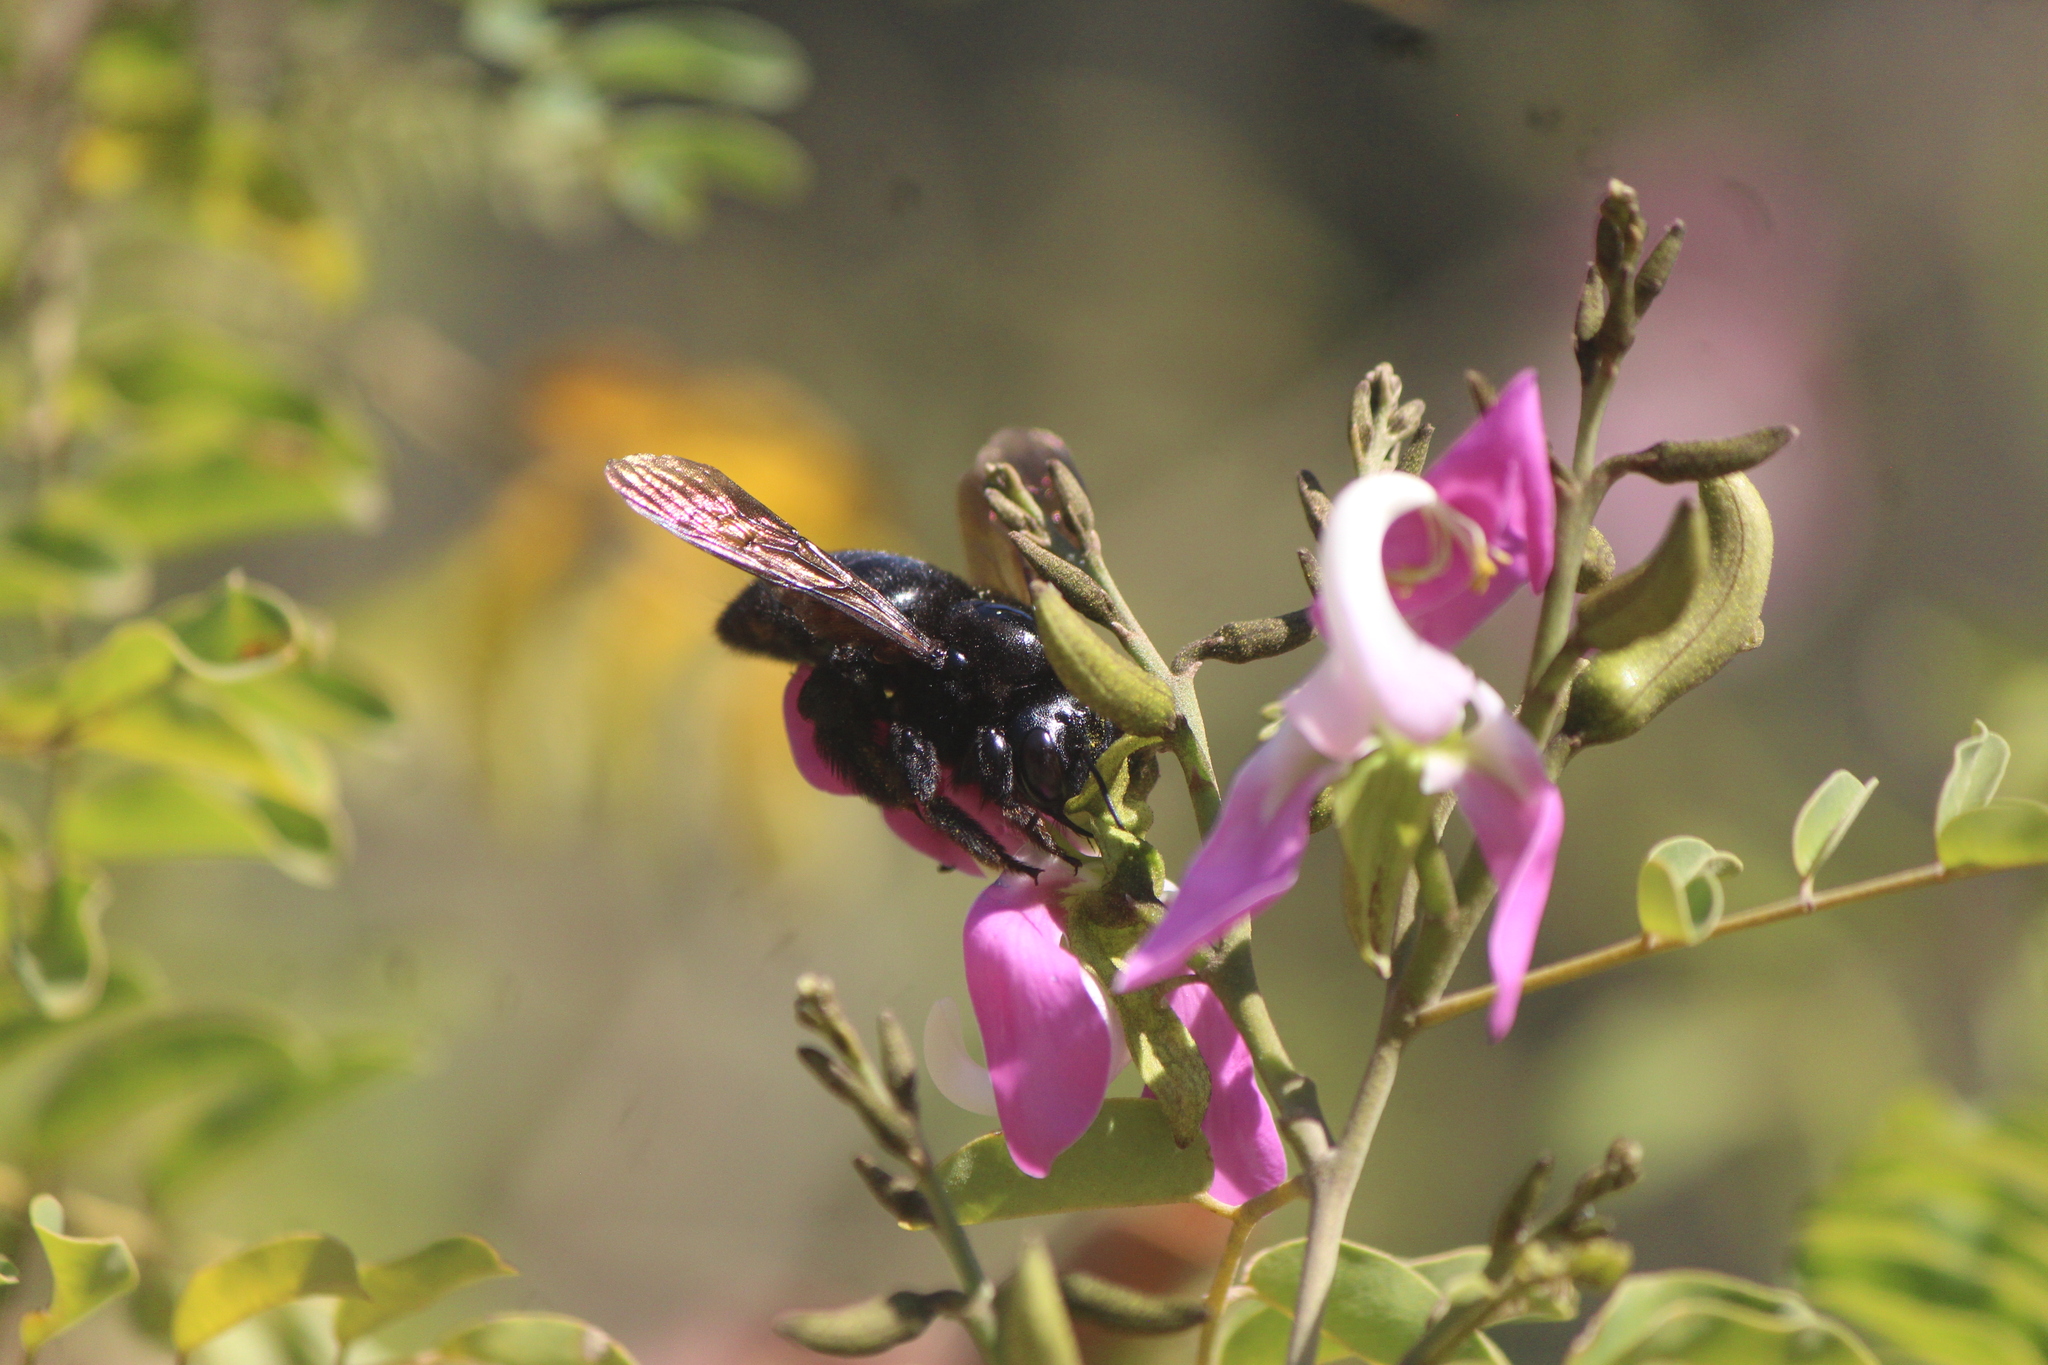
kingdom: Animalia
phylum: Arthropoda
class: Insecta
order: Hymenoptera
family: Apidae
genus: Xylocopa
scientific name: Xylocopa sonorina
